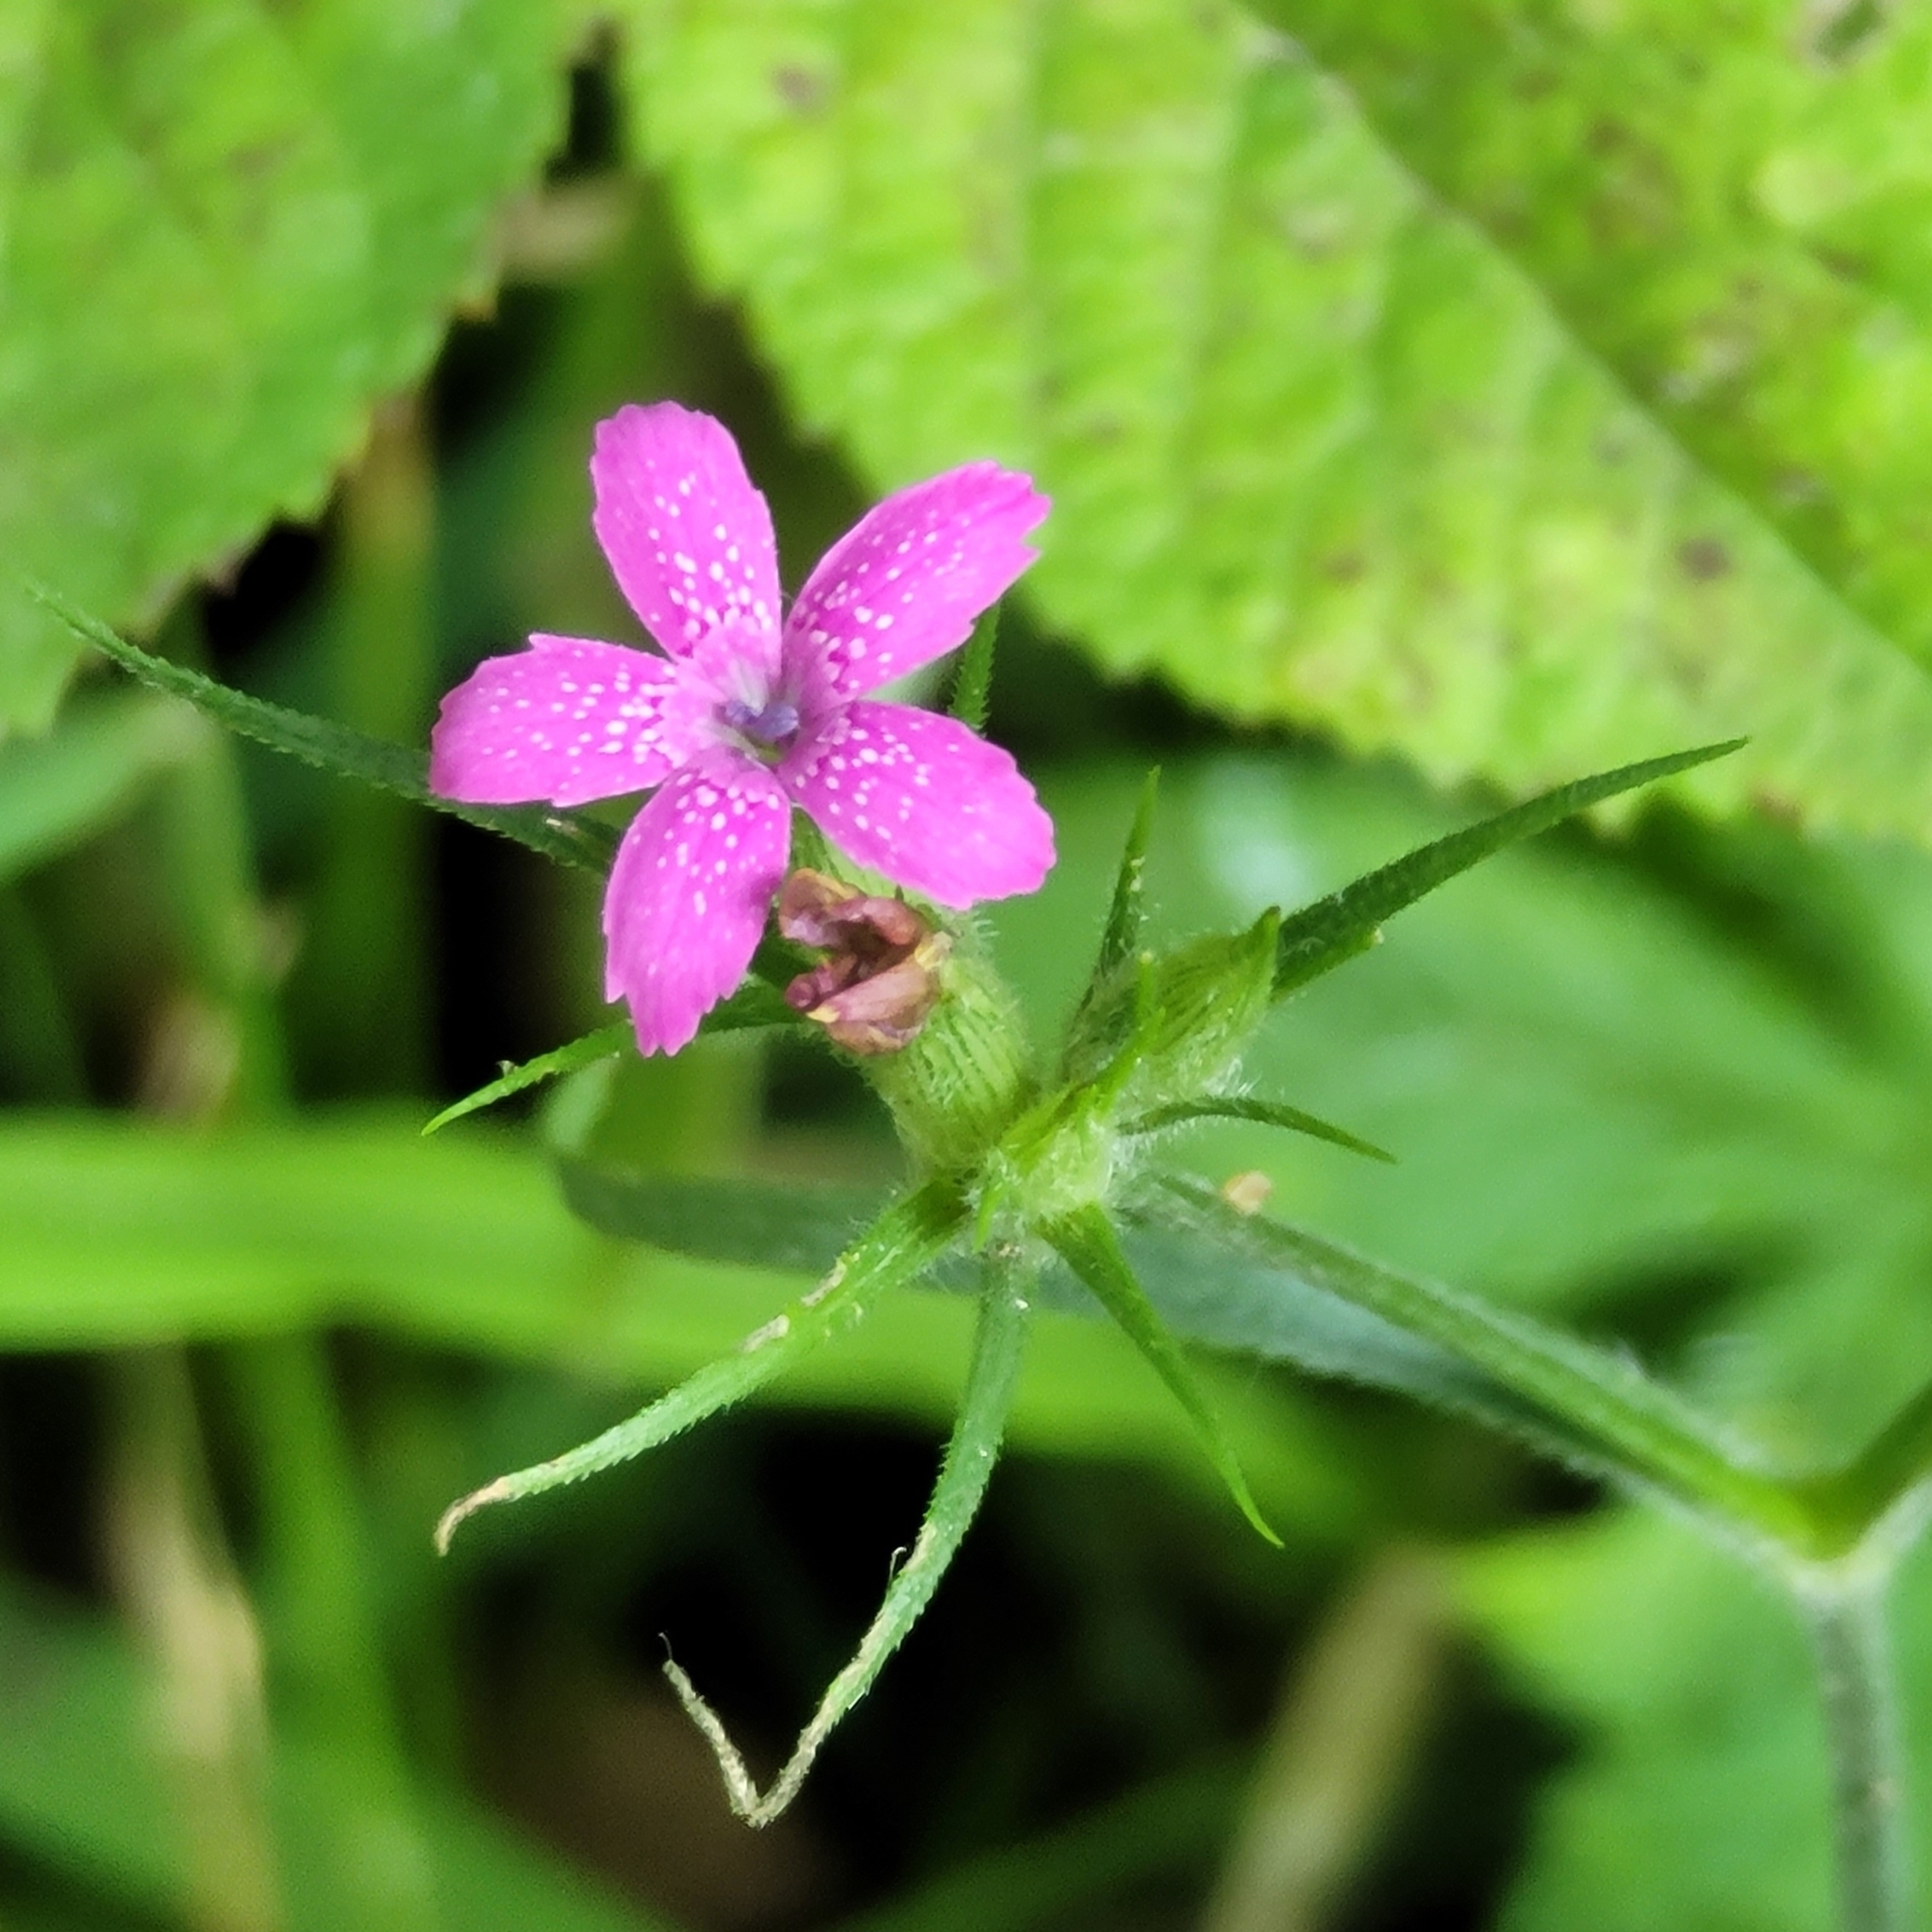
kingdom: Plantae
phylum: Tracheophyta
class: Magnoliopsida
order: Caryophyllales
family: Caryophyllaceae
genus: Dianthus
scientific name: Dianthus armeria
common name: Deptford pink
